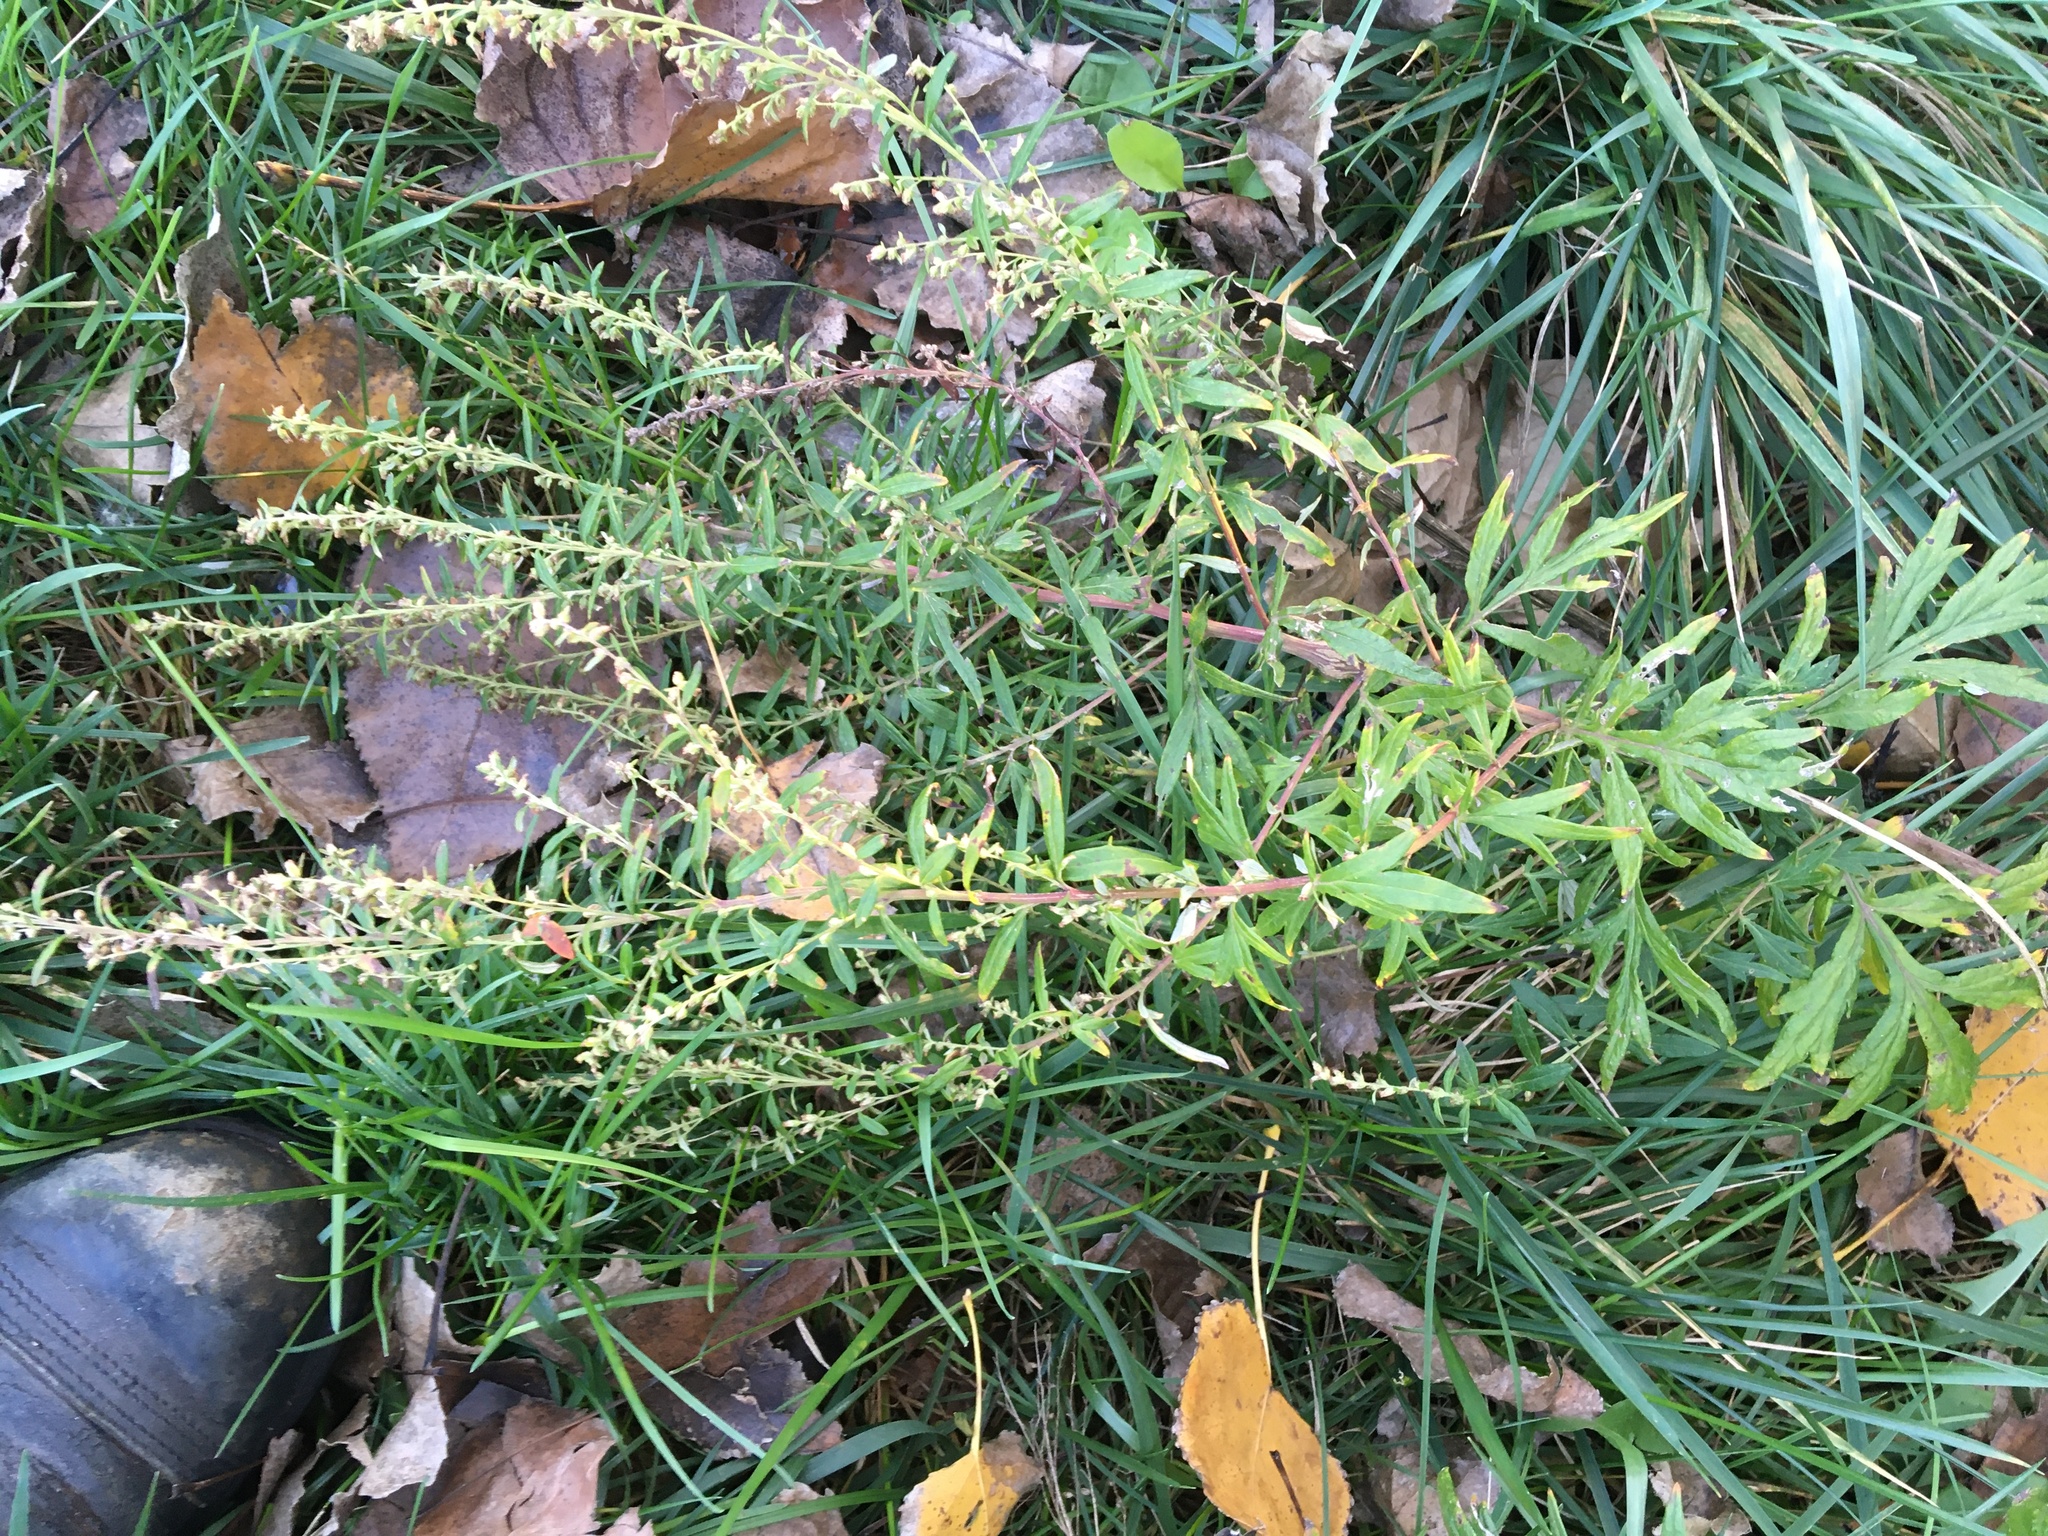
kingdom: Plantae
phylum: Tracheophyta
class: Magnoliopsida
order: Asterales
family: Asteraceae
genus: Artemisia
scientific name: Artemisia vulgaris
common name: Mugwort
